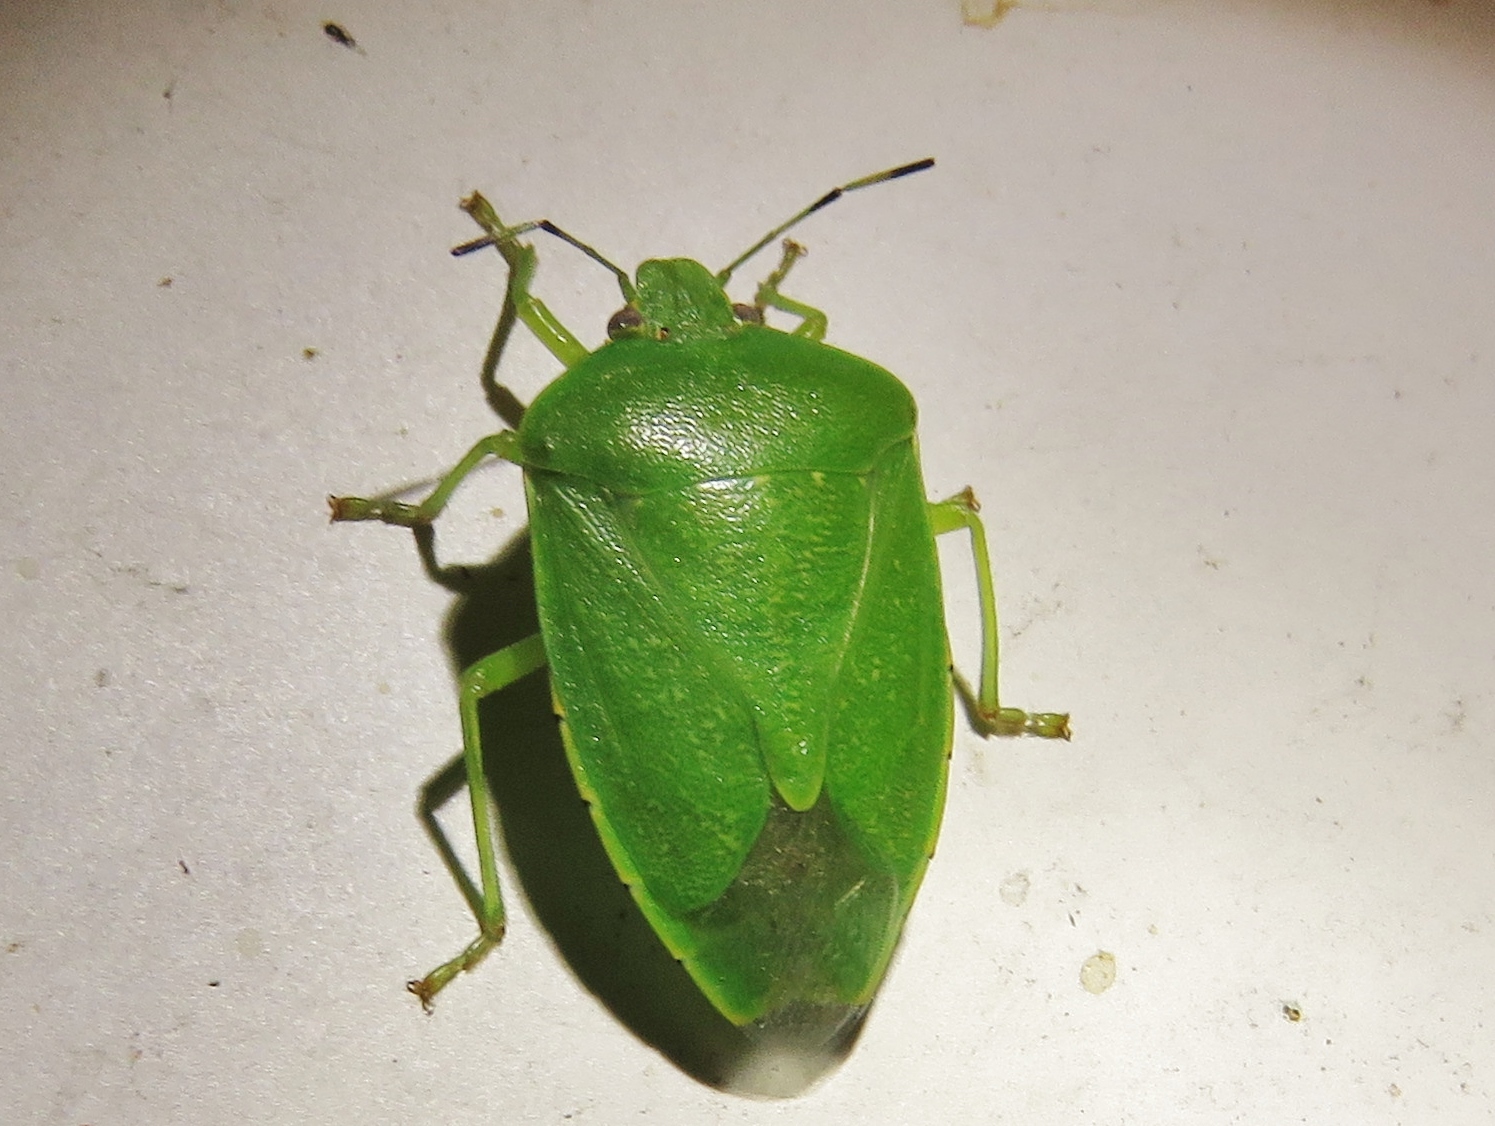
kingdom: Animalia
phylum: Arthropoda
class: Insecta
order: Hemiptera
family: Pentatomidae
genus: Chinavia
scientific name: Chinavia hilaris
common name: Green stink bug
